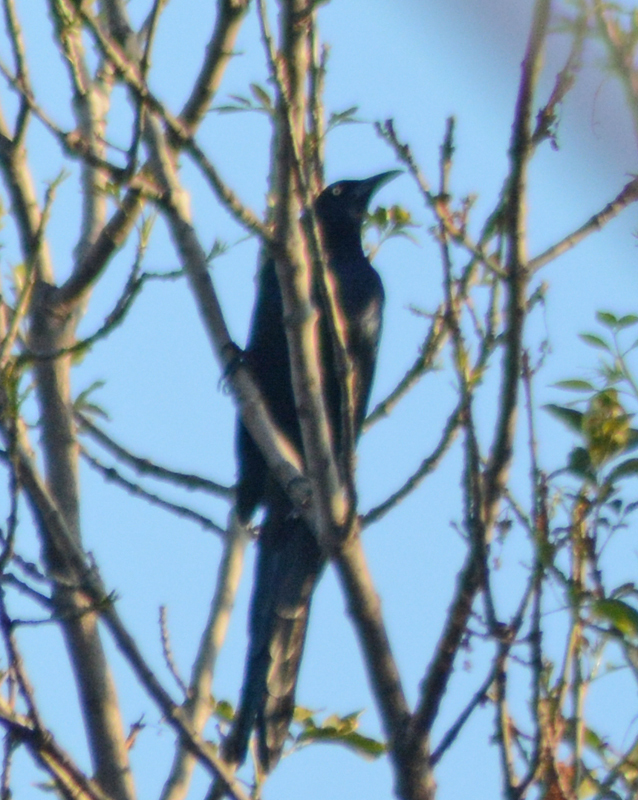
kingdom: Animalia
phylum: Chordata
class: Aves
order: Passeriformes
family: Icteridae
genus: Quiscalus
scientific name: Quiscalus mexicanus
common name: Great-tailed grackle
